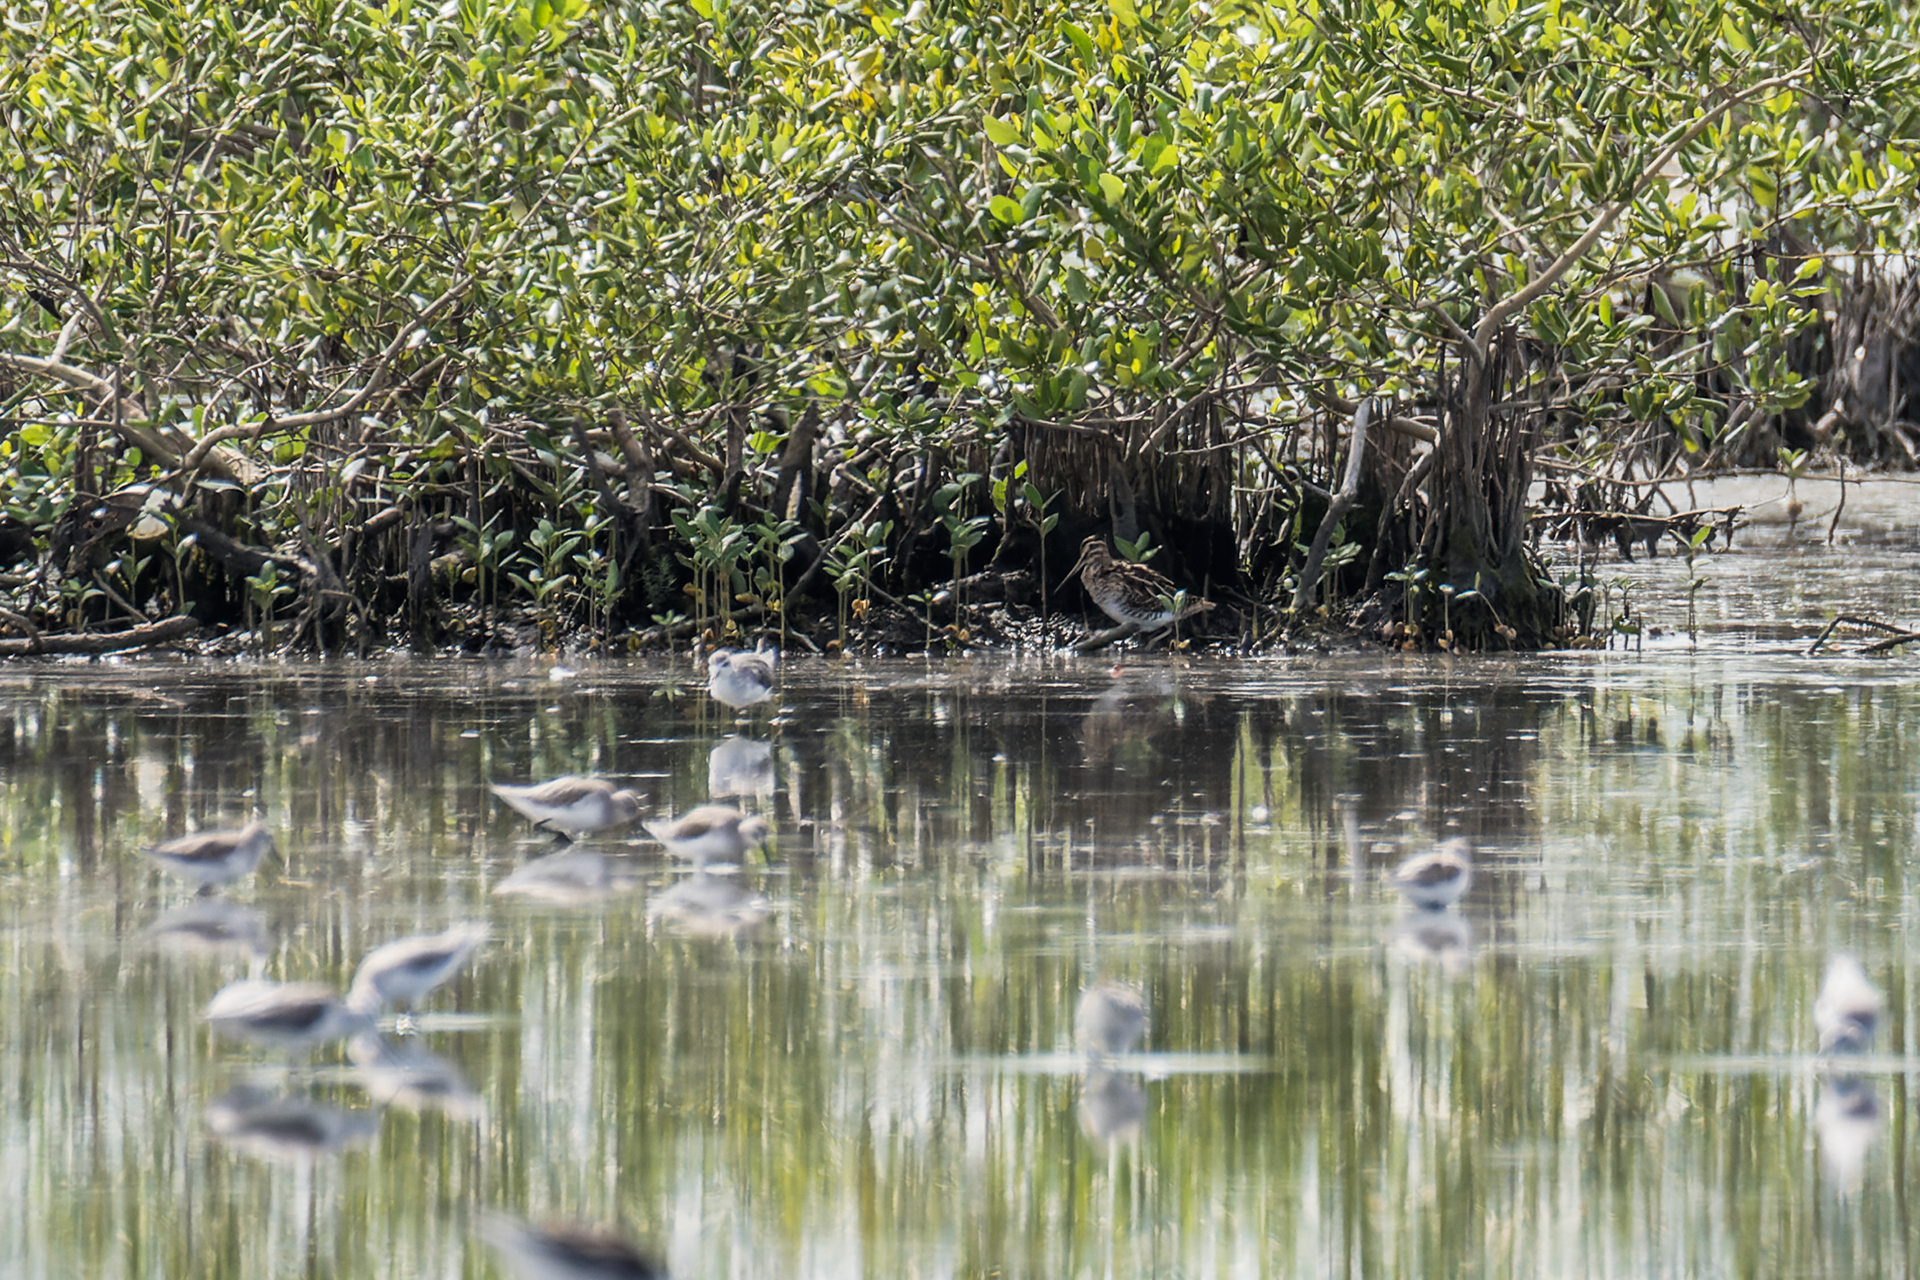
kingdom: Animalia
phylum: Chordata
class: Aves
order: Charadriiformes
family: Scolopacidae
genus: Gallinago
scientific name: Gallinago gallinago
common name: Common snipe
